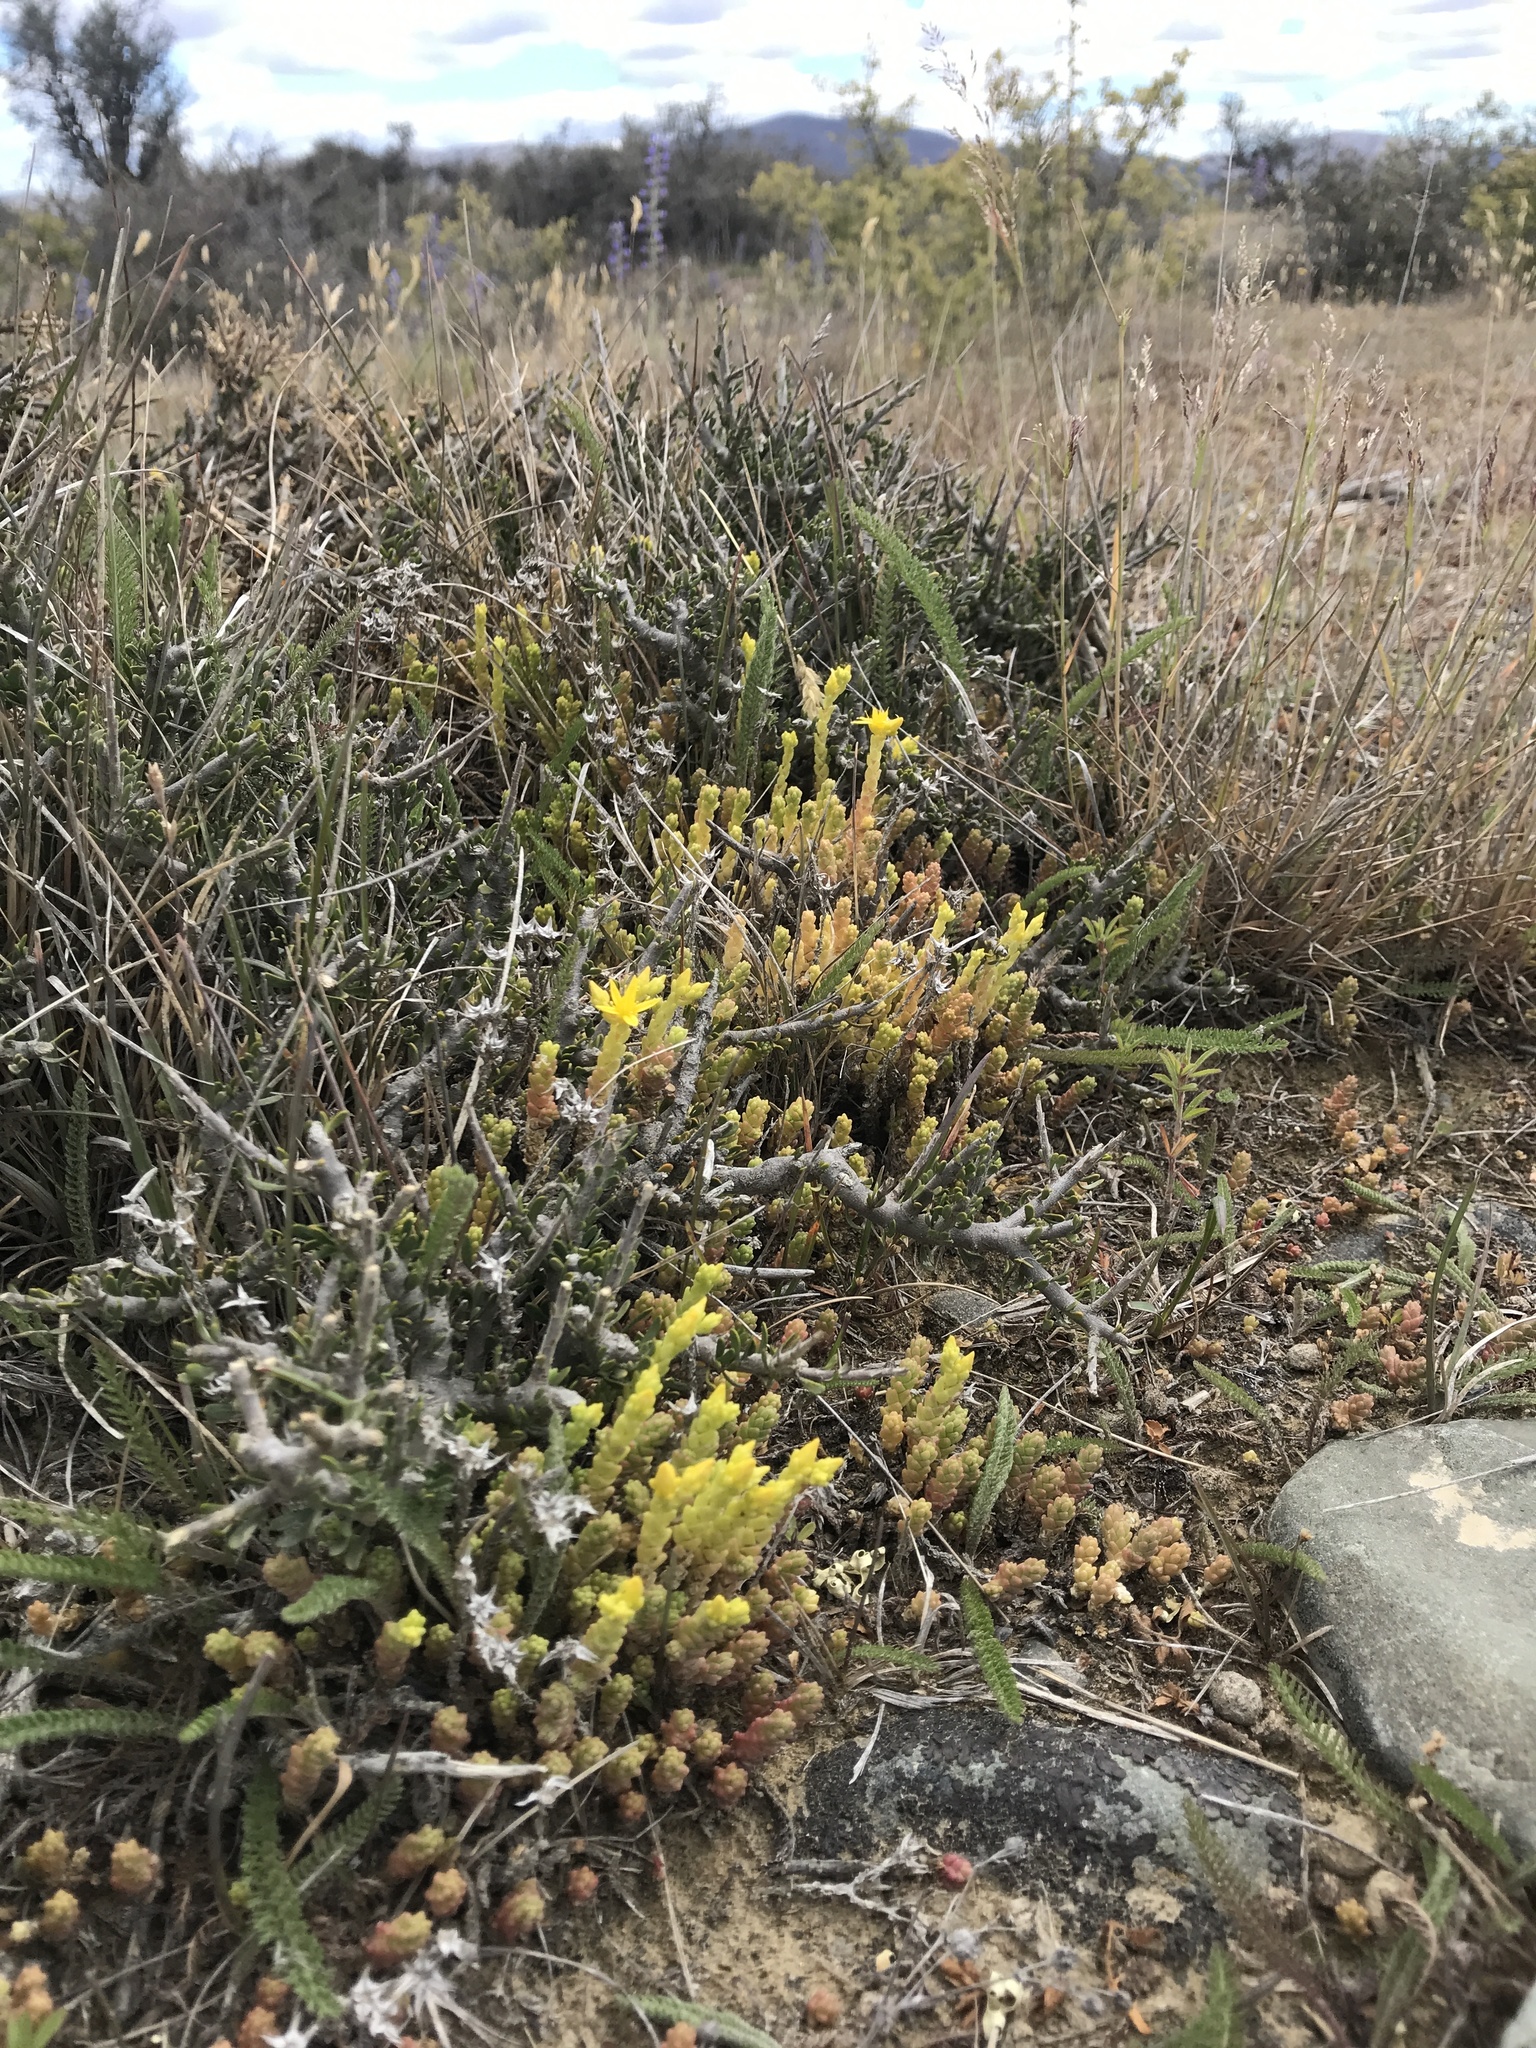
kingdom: Plantae
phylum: Tracheophyta
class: Magnoliopsida
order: Saxifragales
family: Crassulaceae
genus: Sedum
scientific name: Sedum acre
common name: Biting stonecrop
